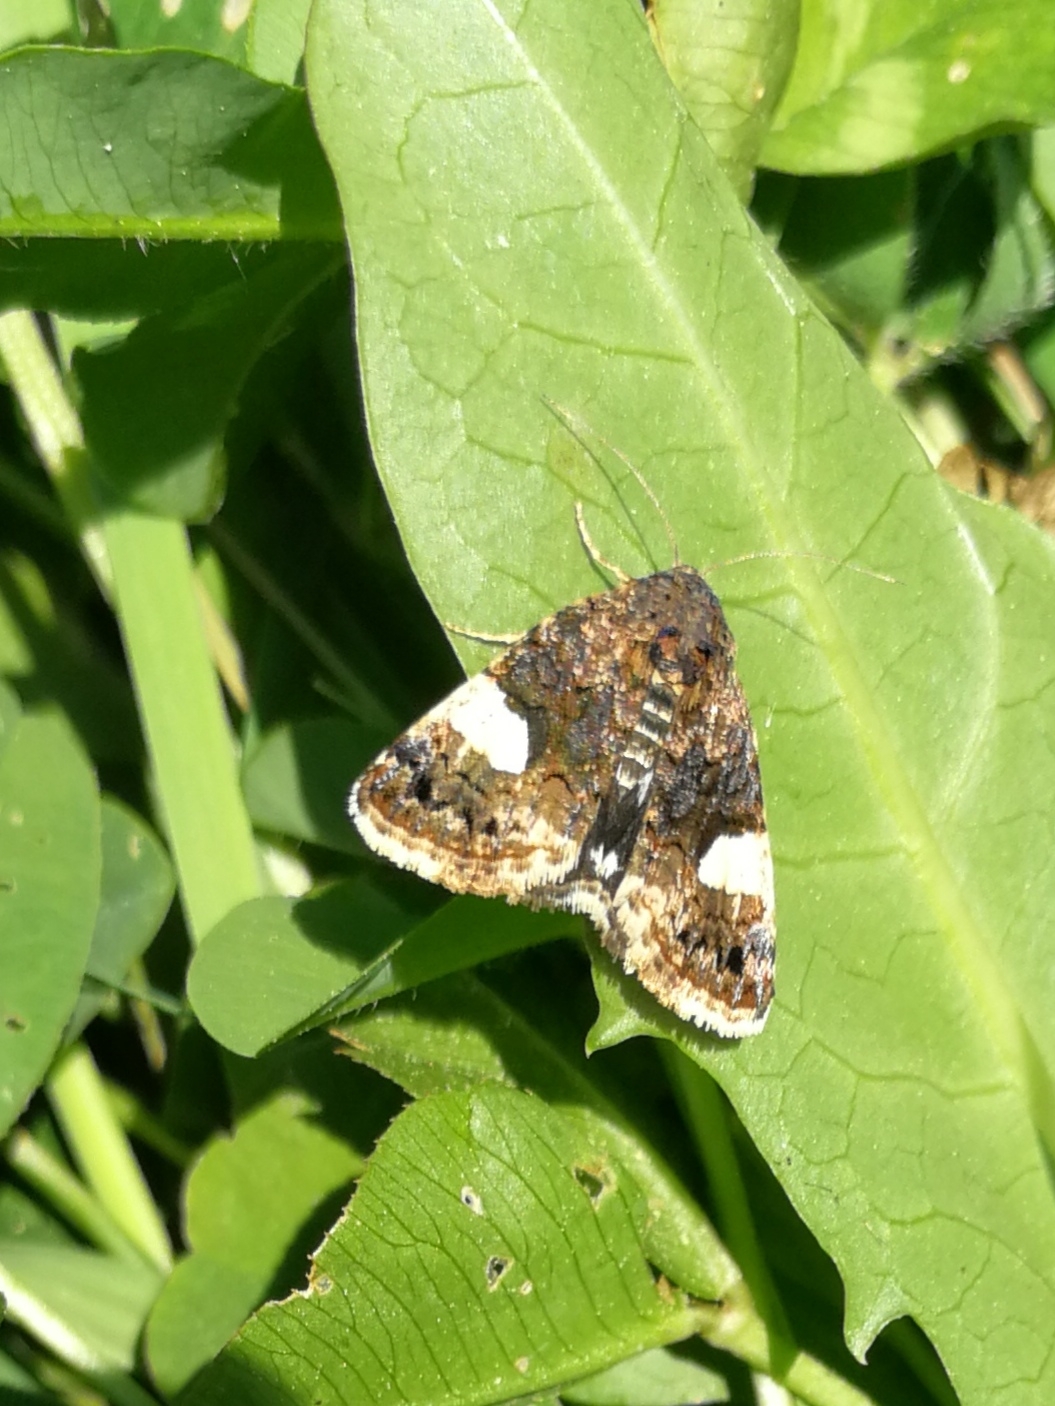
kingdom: Animalia
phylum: Arthropoda
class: Insecta
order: Lepidoptera
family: Erebidae
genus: Tyta
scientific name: Tyta luctuosa
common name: Four-spotted
